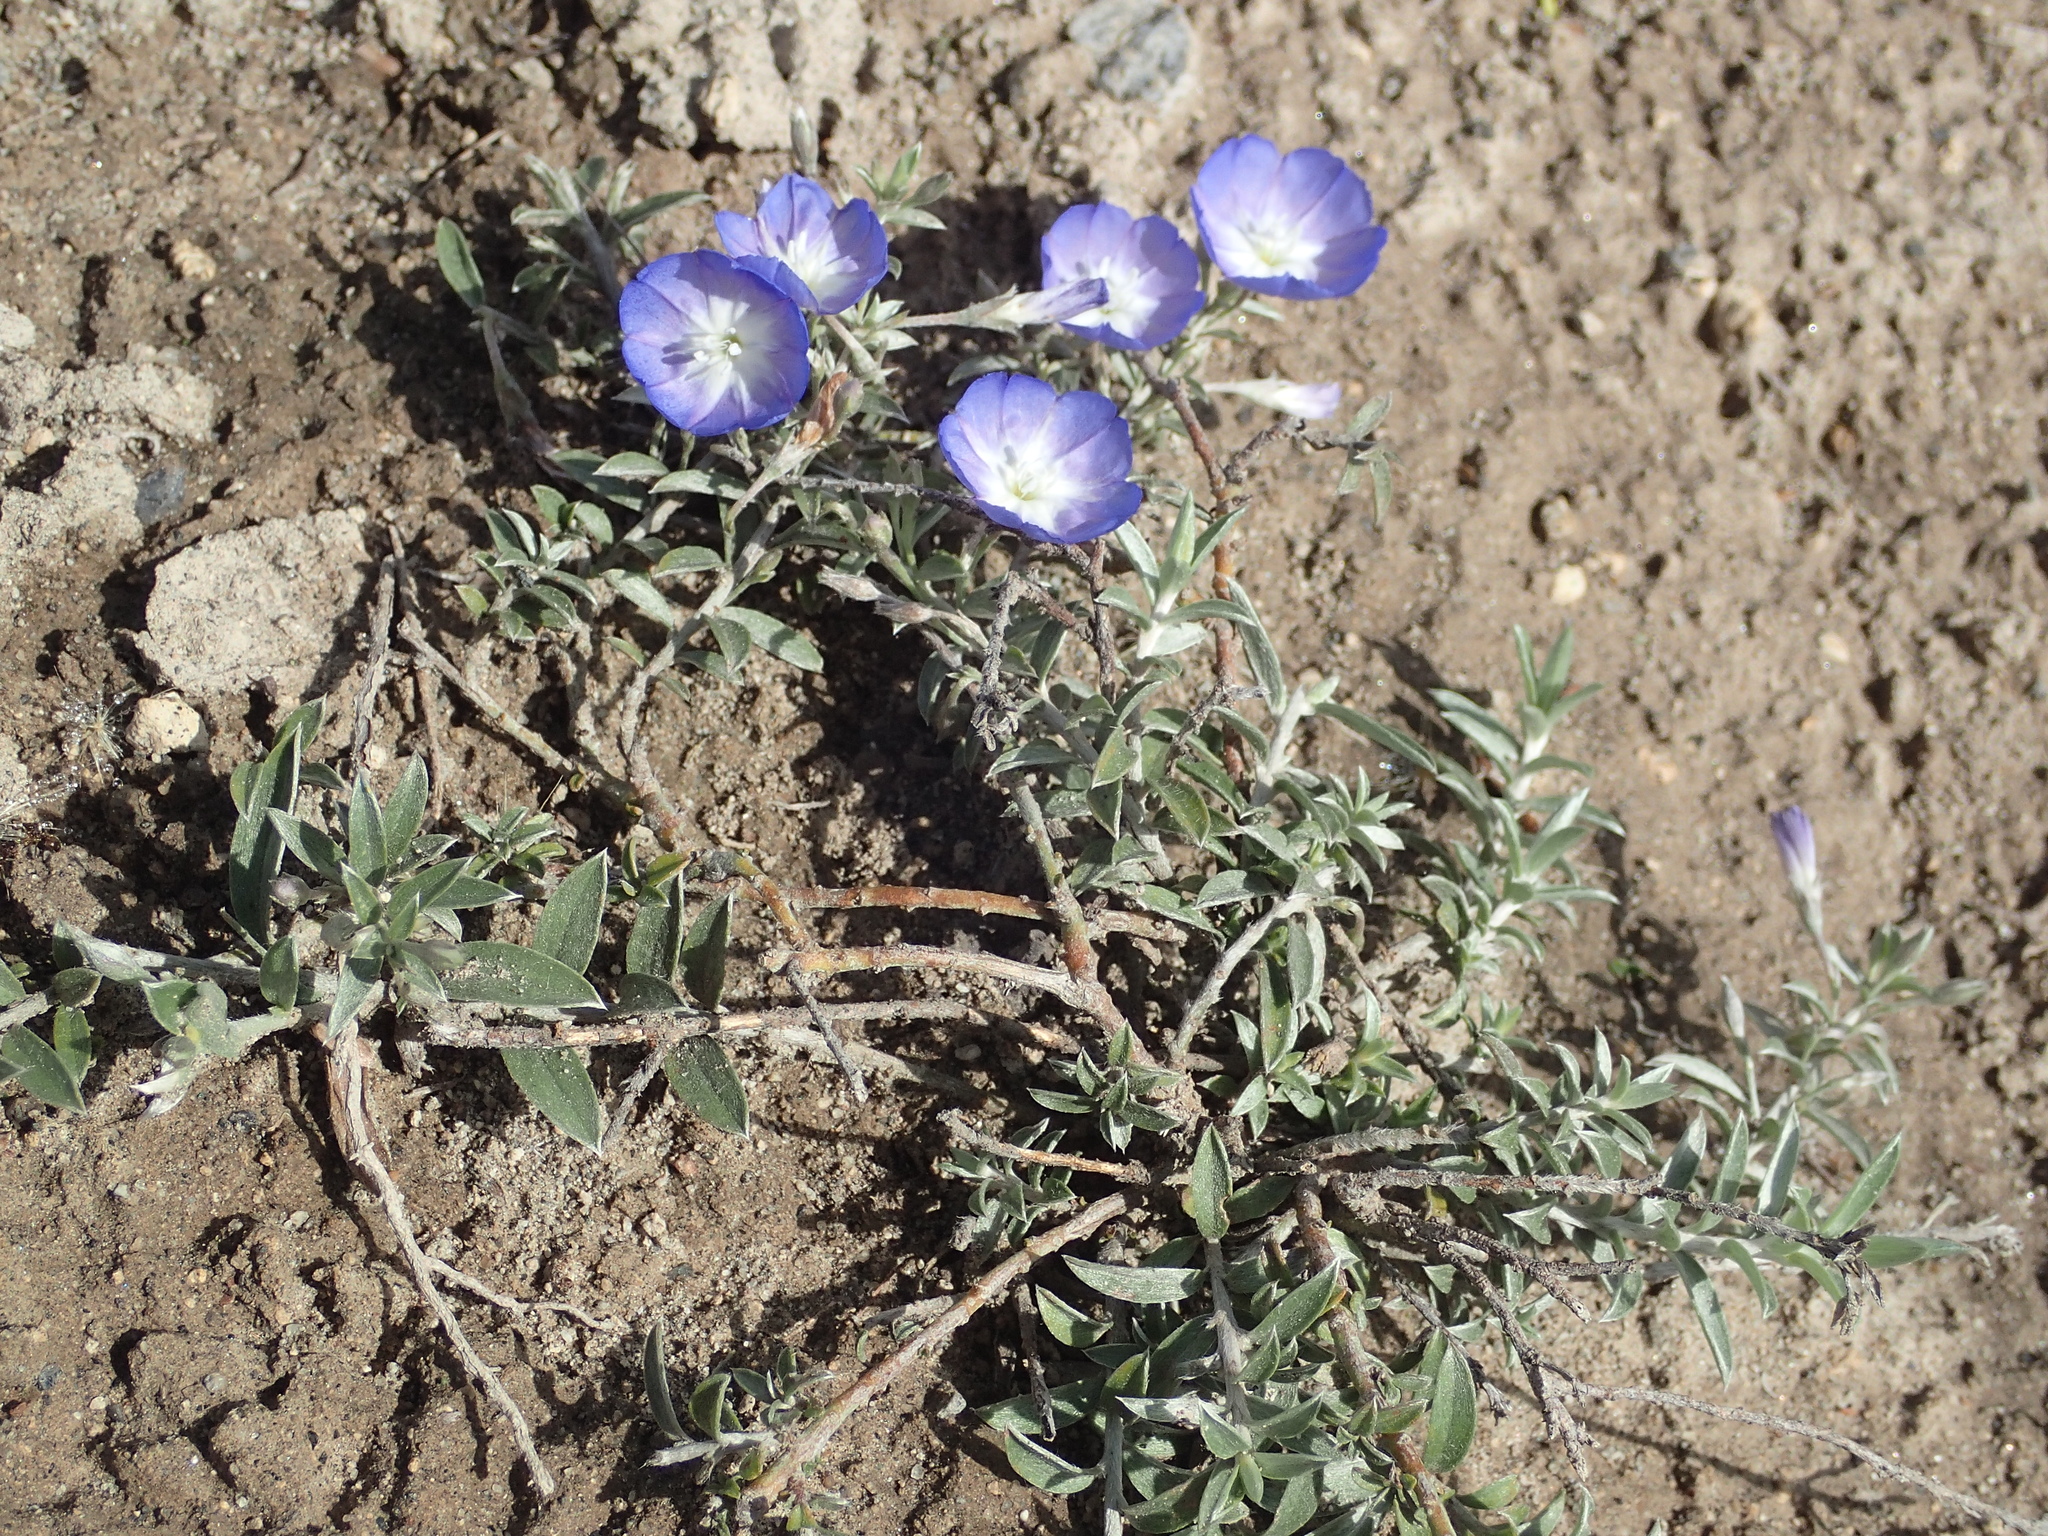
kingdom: Plantae
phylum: Tracheophyta
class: Magnoliopsida
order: Solanales
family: Convolvulaceae
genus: Evolvulus
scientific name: Evolvulus argyreus
